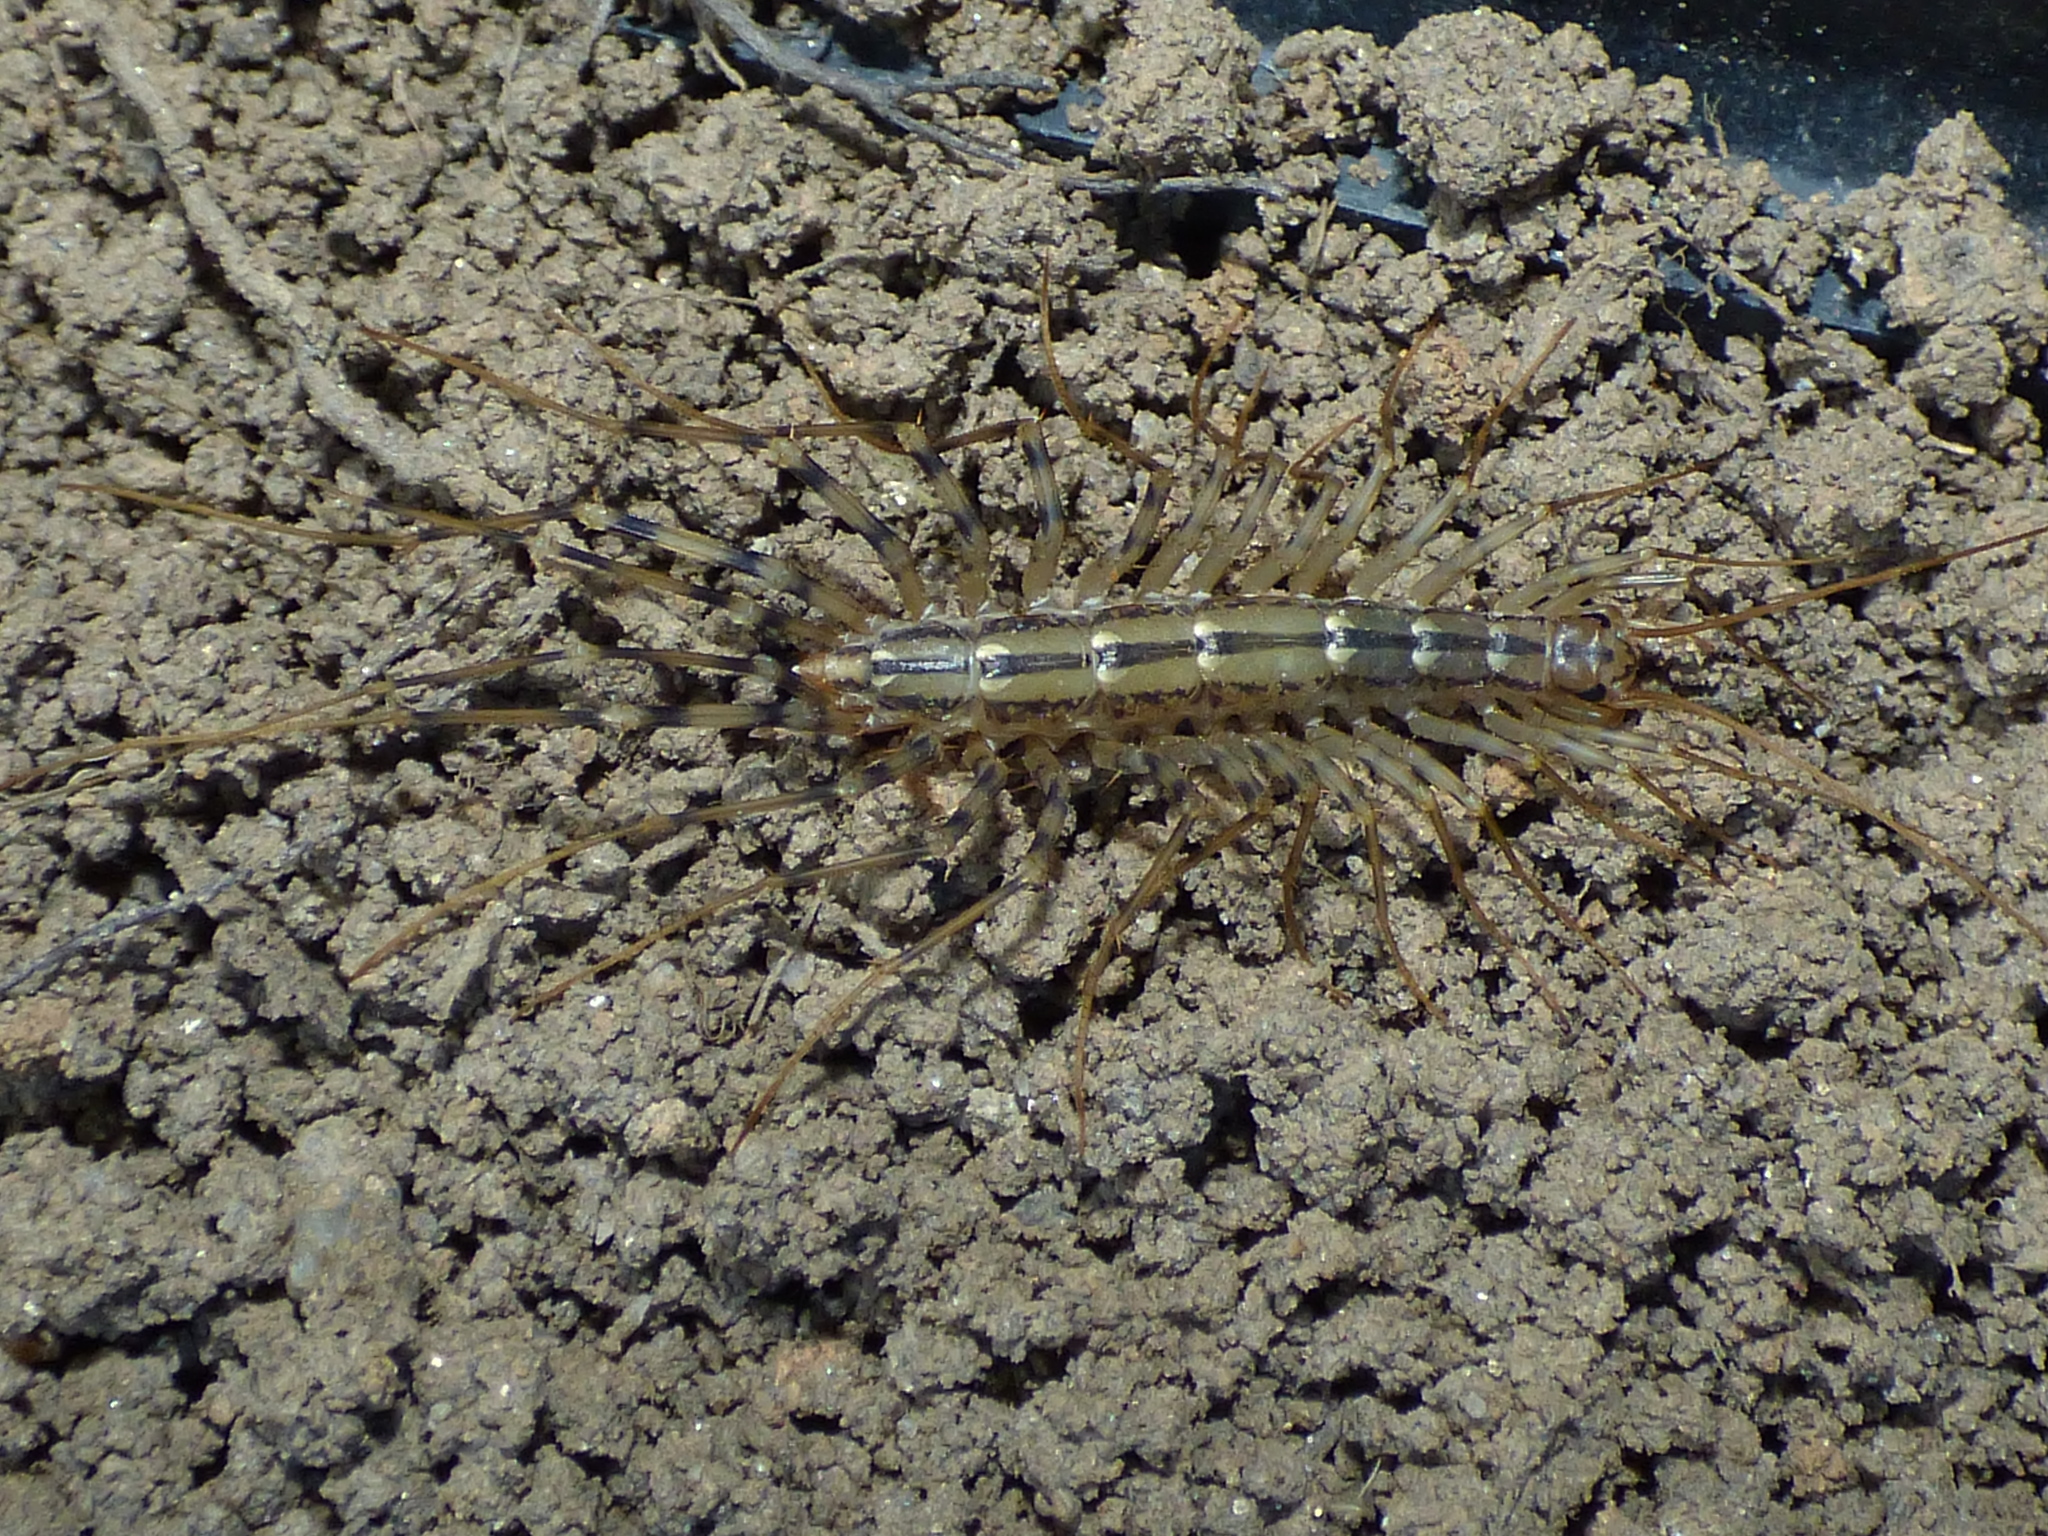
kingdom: Animalia
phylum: Arthropoda
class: Chilopoda
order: Scutigeromorpha
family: Scutigeridae
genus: Scutigera
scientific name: Scutigera coleoptrata
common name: House centipede
